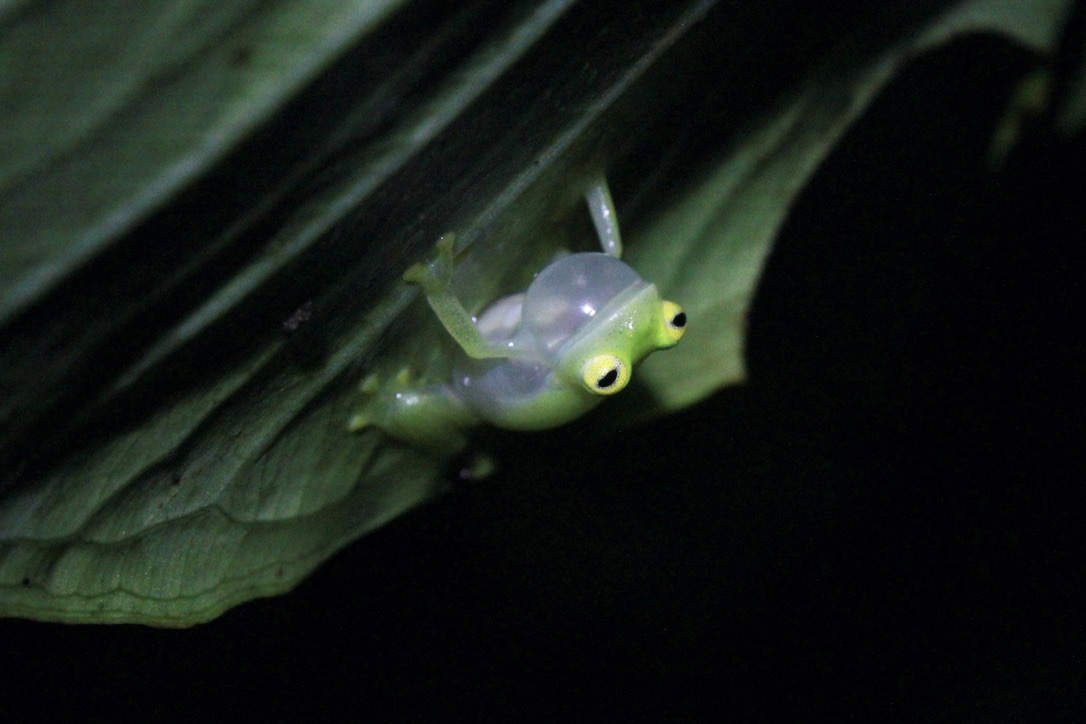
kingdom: Animalia
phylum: Chordata
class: Amphibia
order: Anura
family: Centrolenidae
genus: Hyalinobatrachium
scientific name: Hyalinobatrachium orientale
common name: Eastern glass frog
